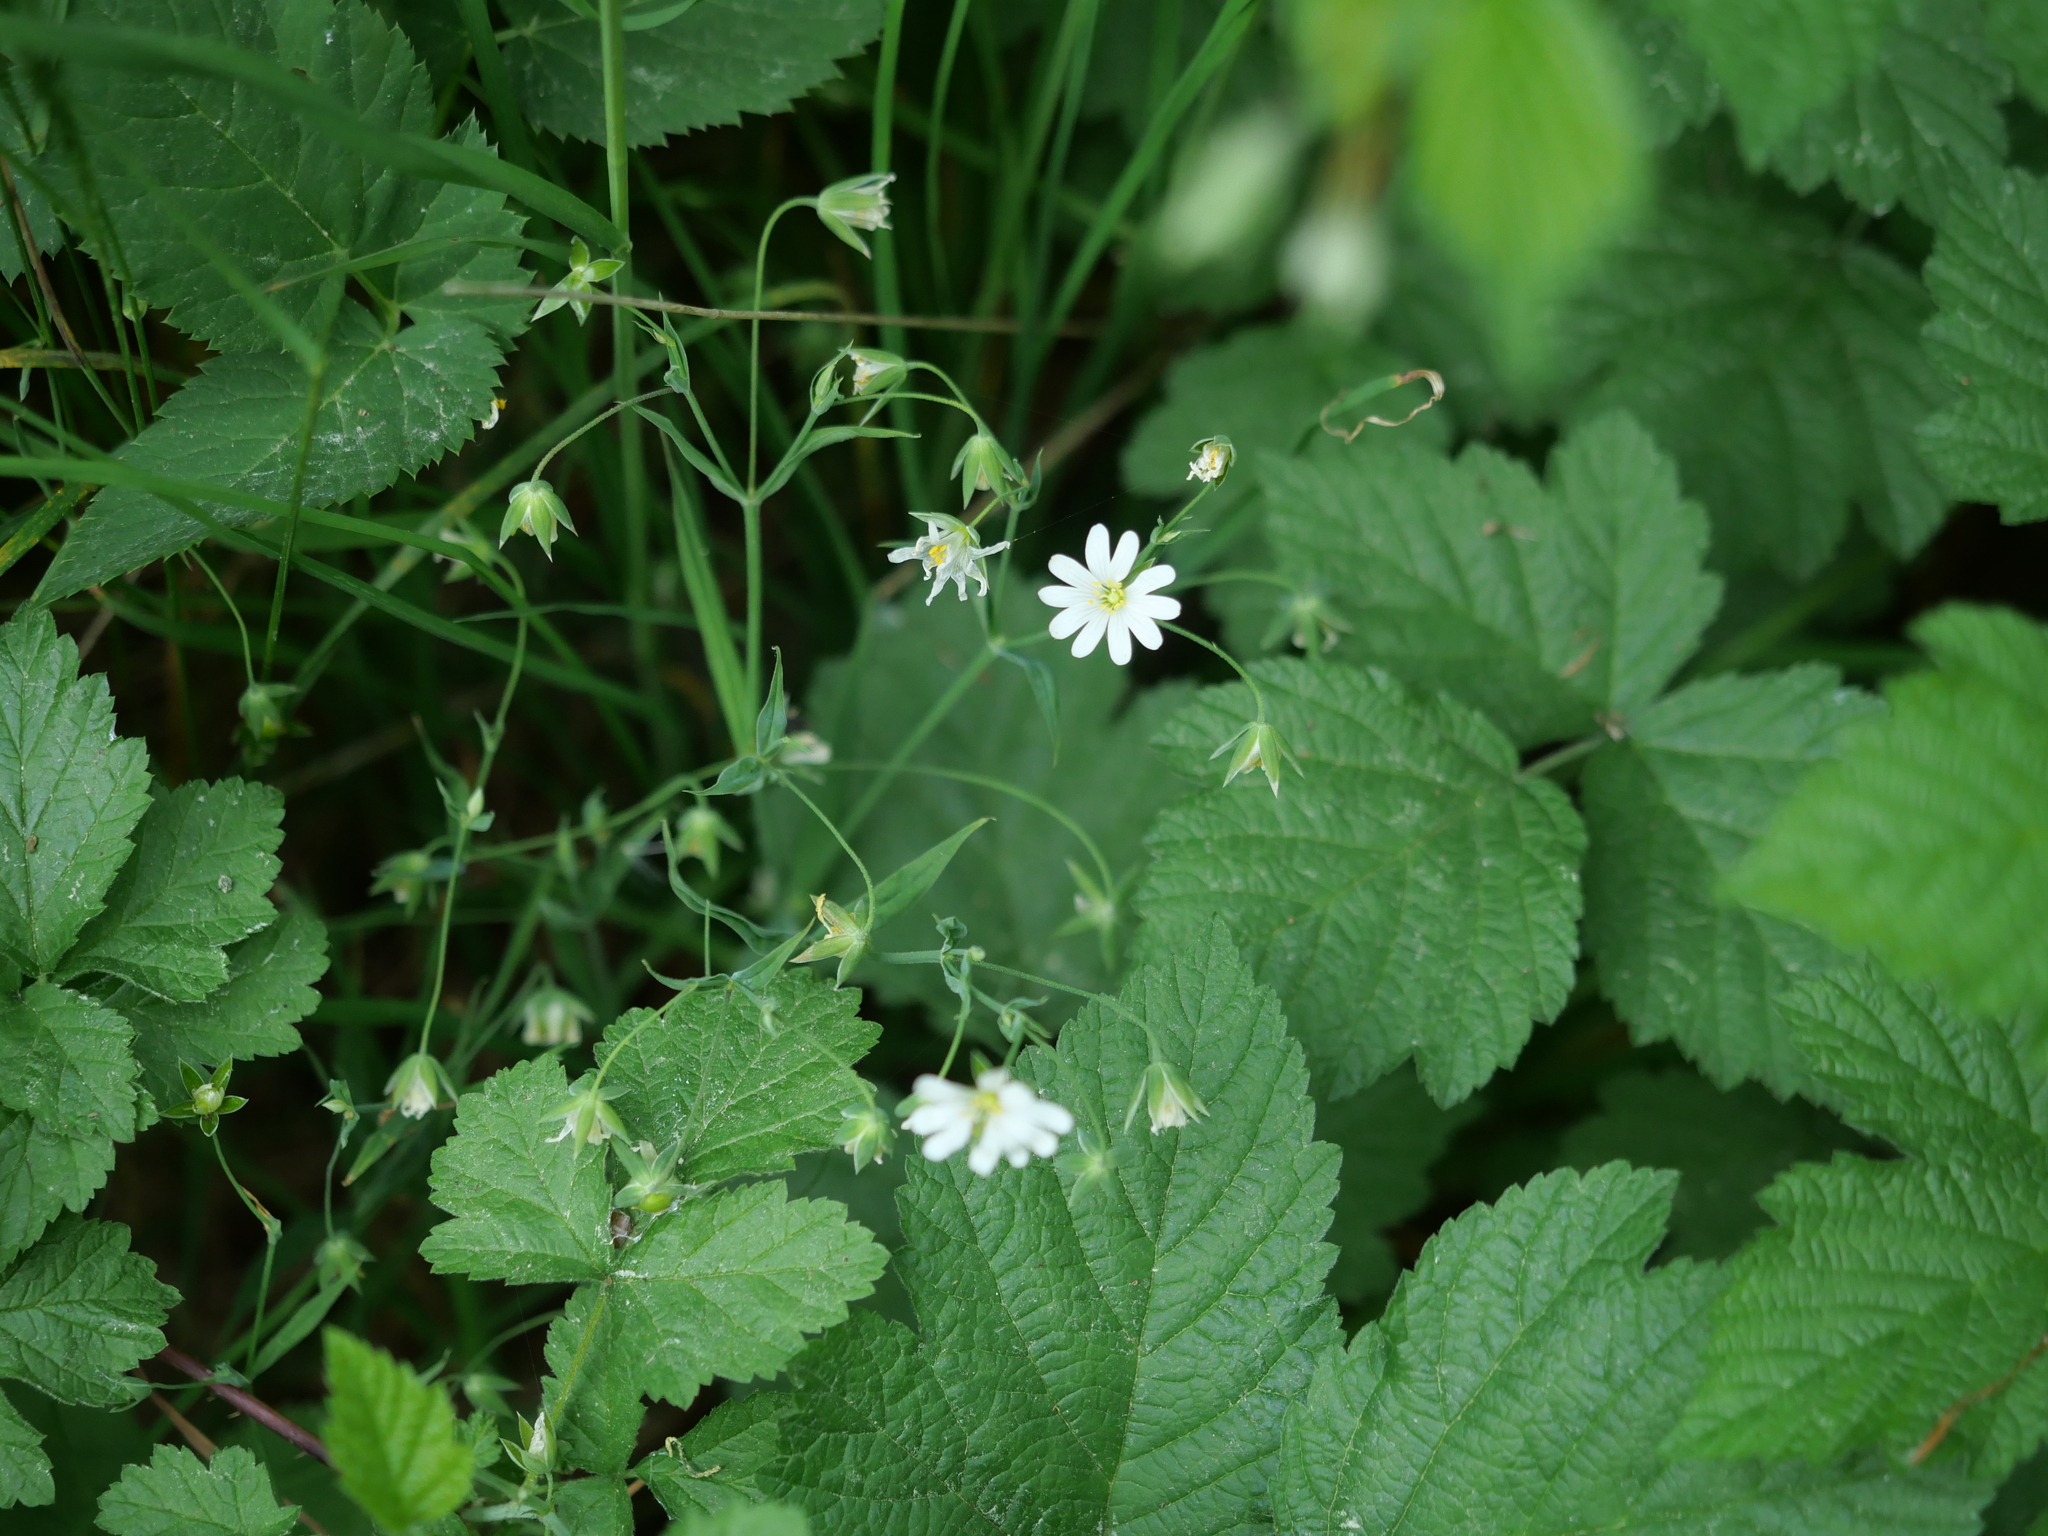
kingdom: Plantae
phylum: Tracheophyta
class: Magnoliopsida
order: Caryophyllales
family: Caryophyllaceae
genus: Rabelera
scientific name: Rabelera holostea
